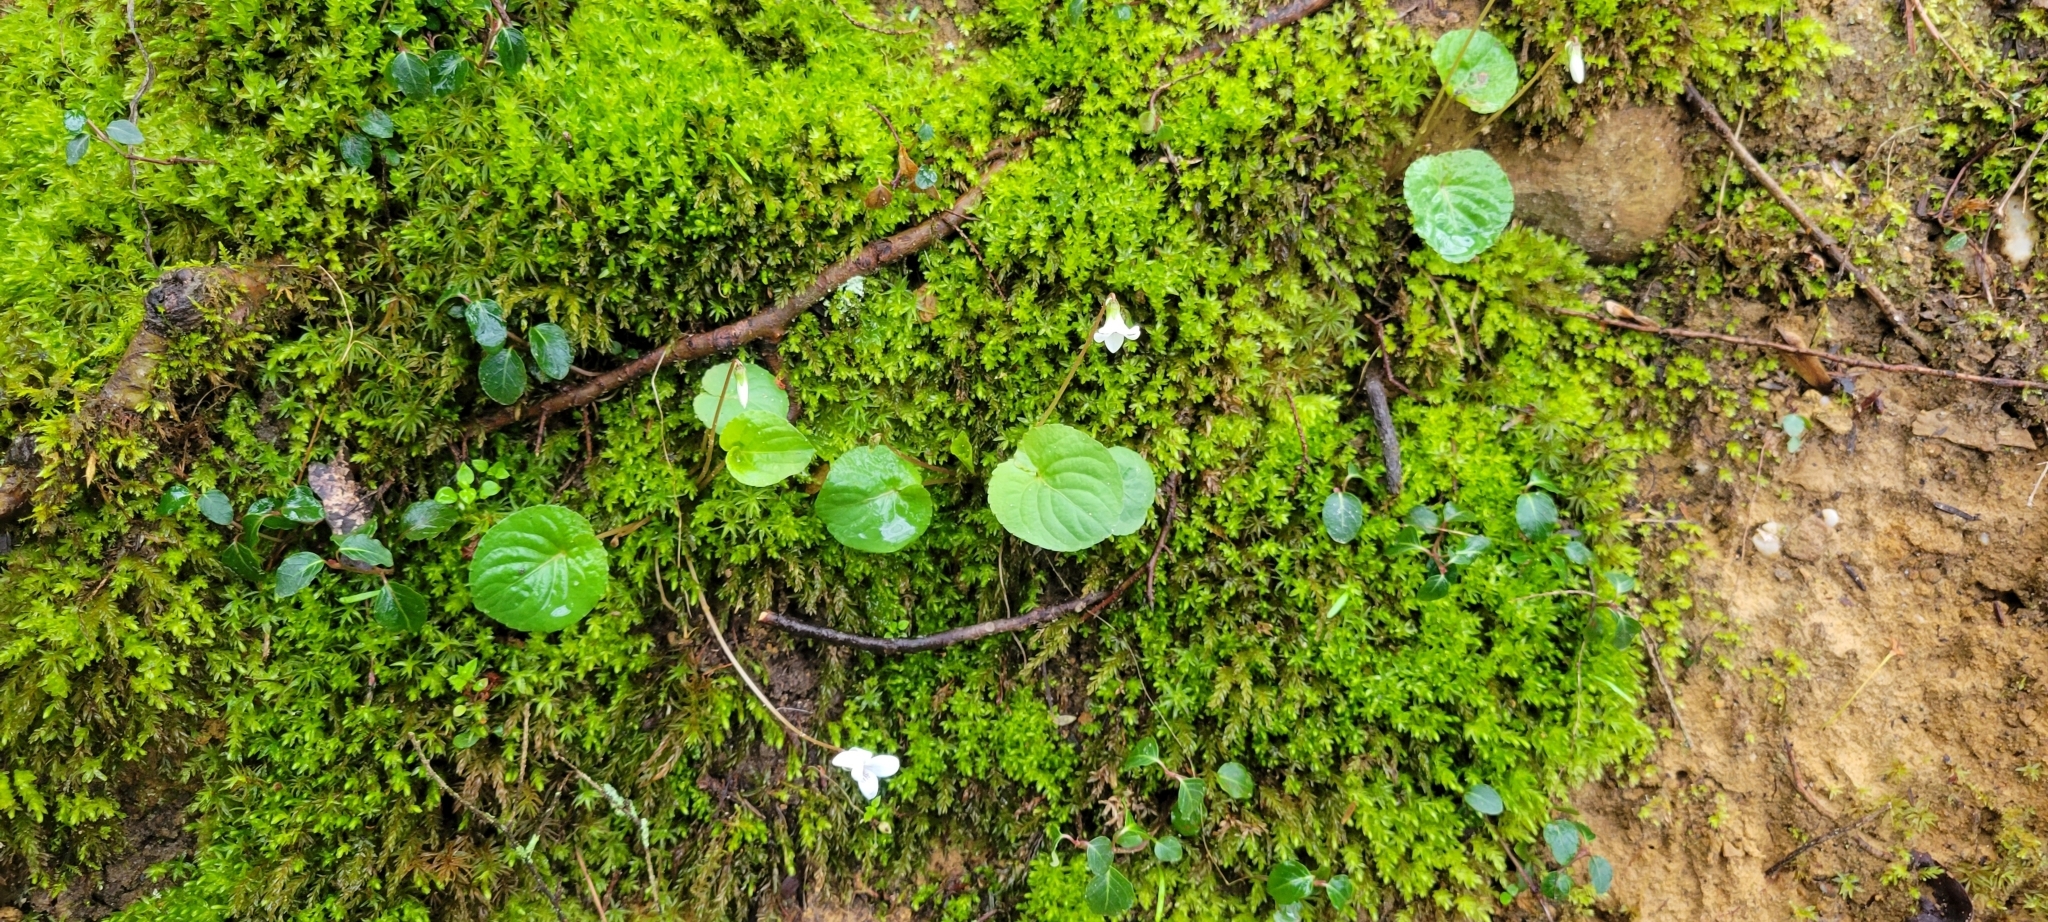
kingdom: Plantae
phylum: Tracheophyta
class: Magnoliopsida
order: Malpighiales
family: Violaceae
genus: Viola
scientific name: Viola blanda
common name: Sweet white violet
